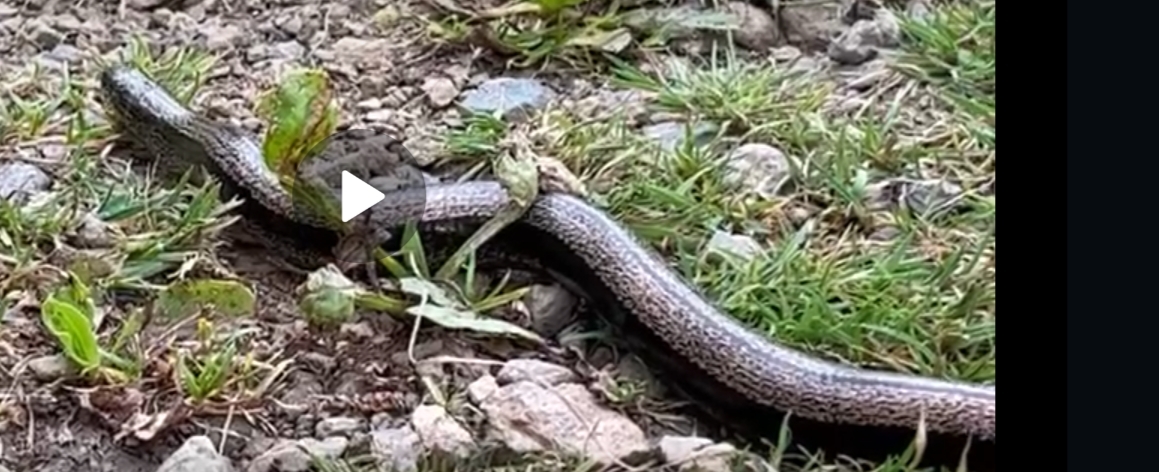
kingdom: Animalia
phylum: Chordata
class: Squamata
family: Anguidae
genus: Anguis
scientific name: Anguis fragilis
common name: Slow worm
